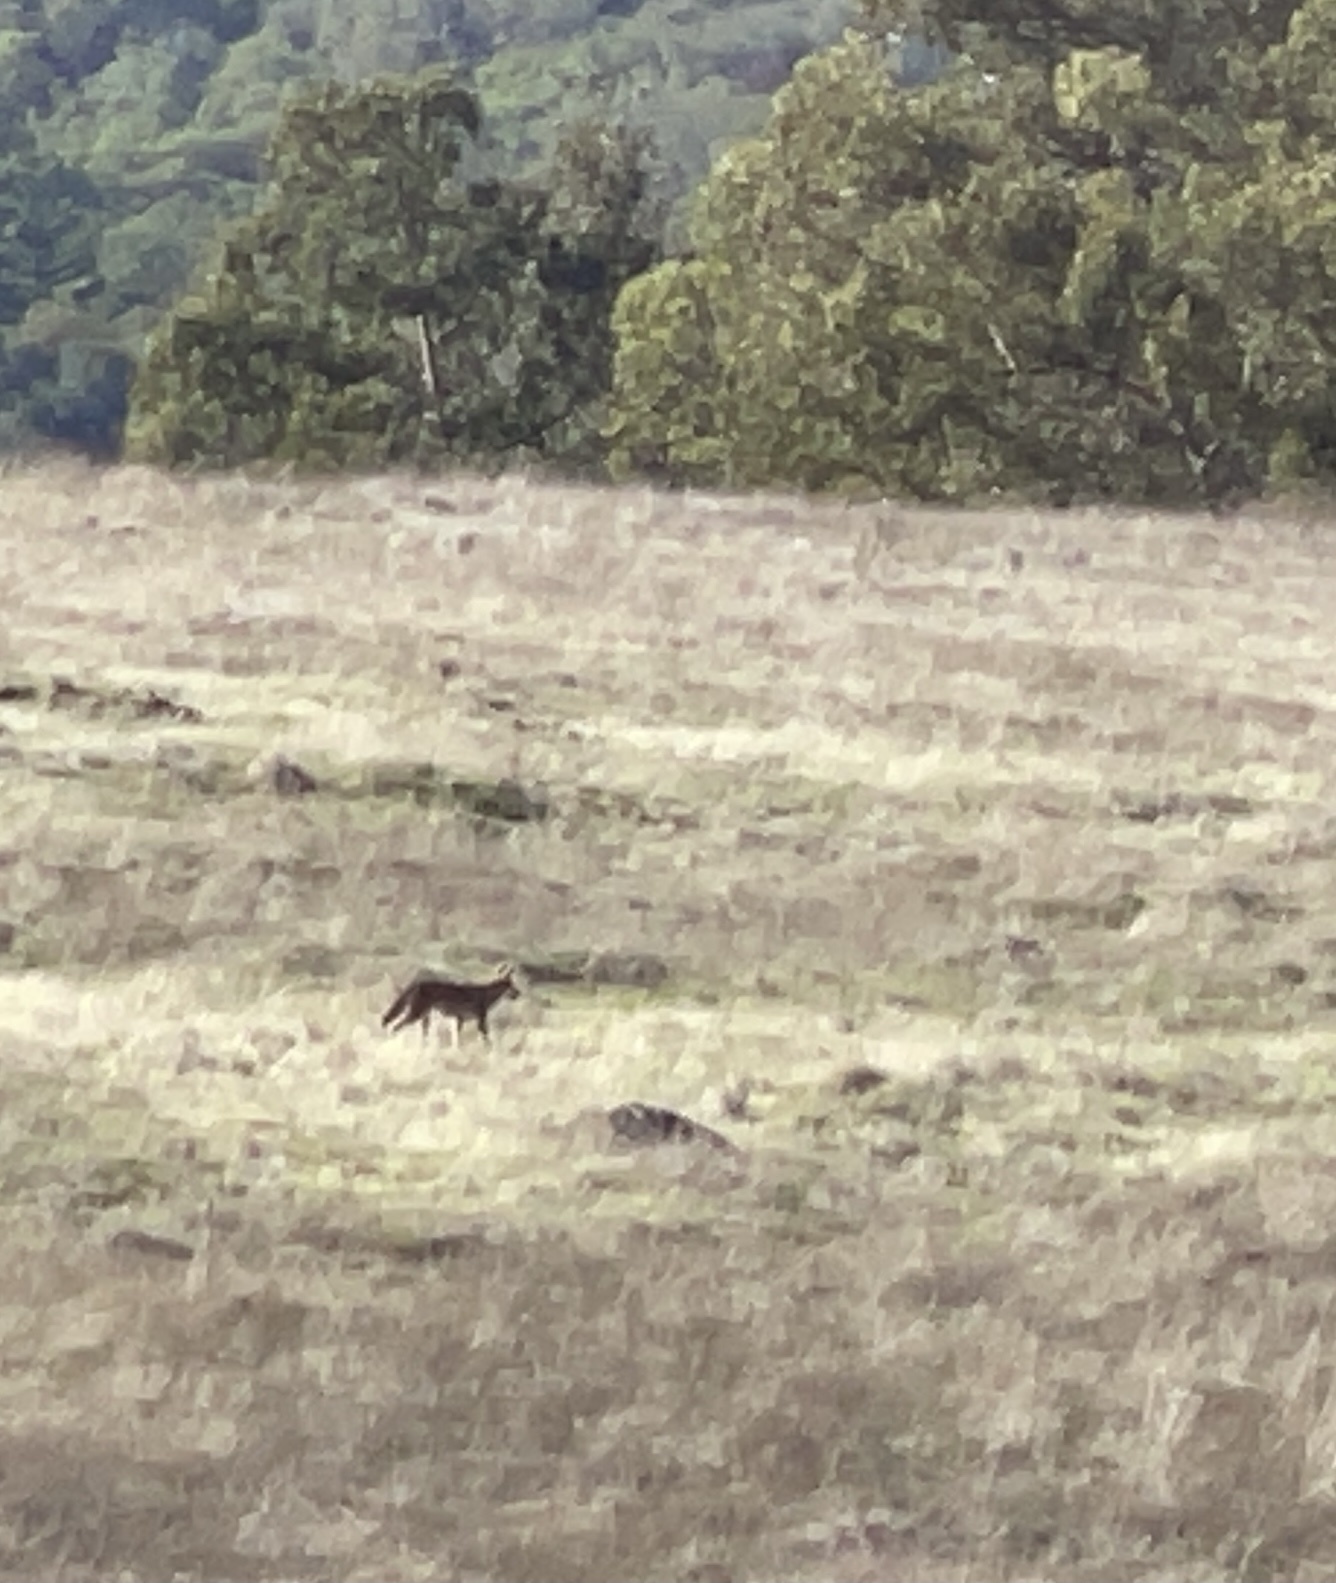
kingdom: Animalia
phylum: Chordata
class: Mammalia
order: Carnivora
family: Canidae
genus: Canis
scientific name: Canis latrans
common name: Coyote
